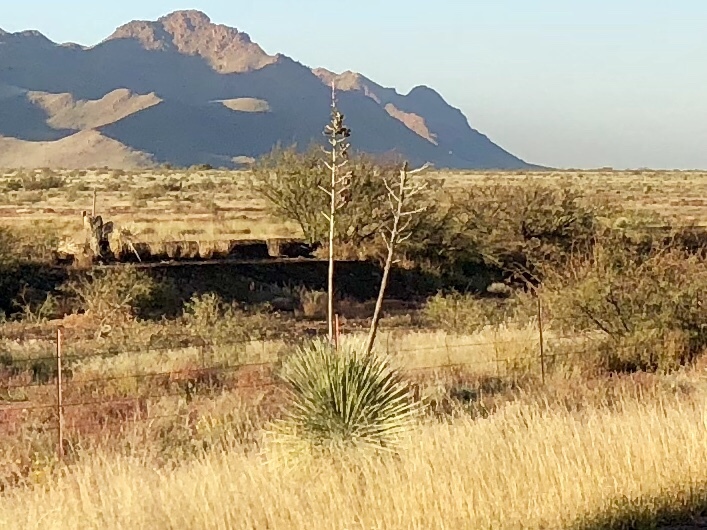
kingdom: Plantae
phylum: Tracheophyta
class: Liliopsida
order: Asparagales
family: Asparagaceae
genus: Yucca
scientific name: Yucca elata
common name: Palmella
